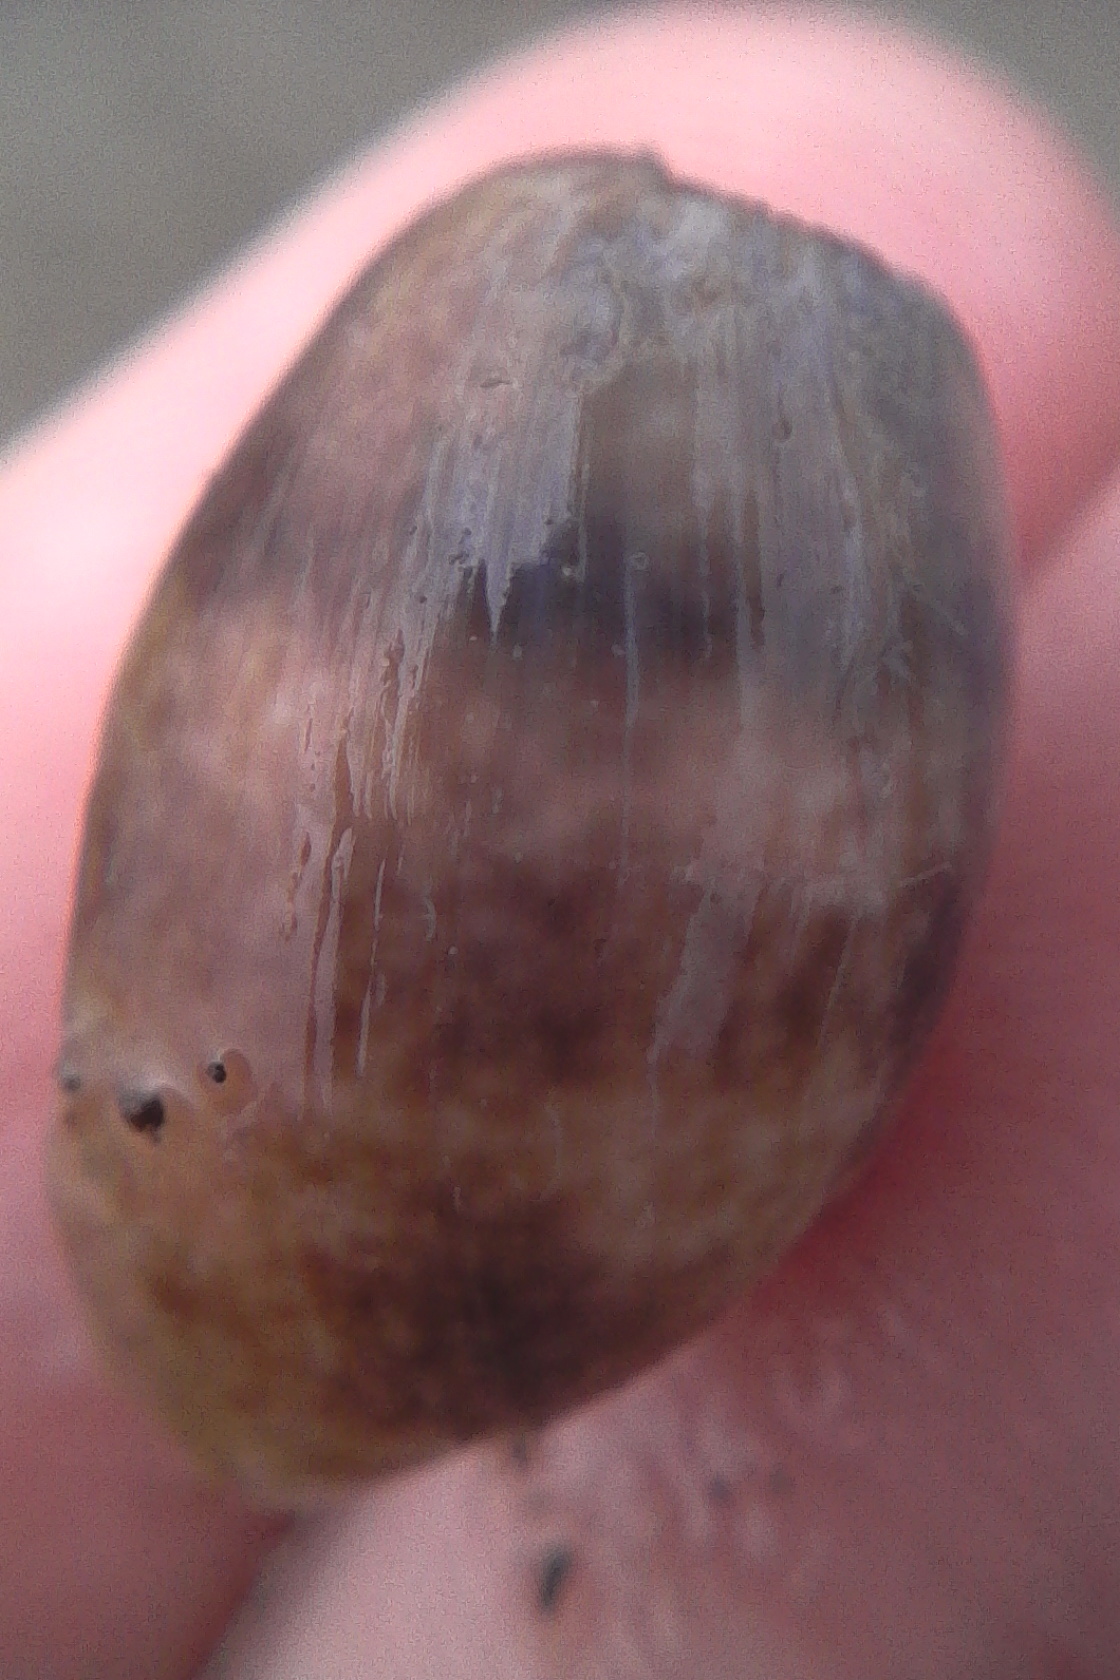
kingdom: Animalia
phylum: Mollusca
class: Gastropoda
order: Cephalaspidea
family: Bullidae
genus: Bulla
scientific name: Bulla quoyii
